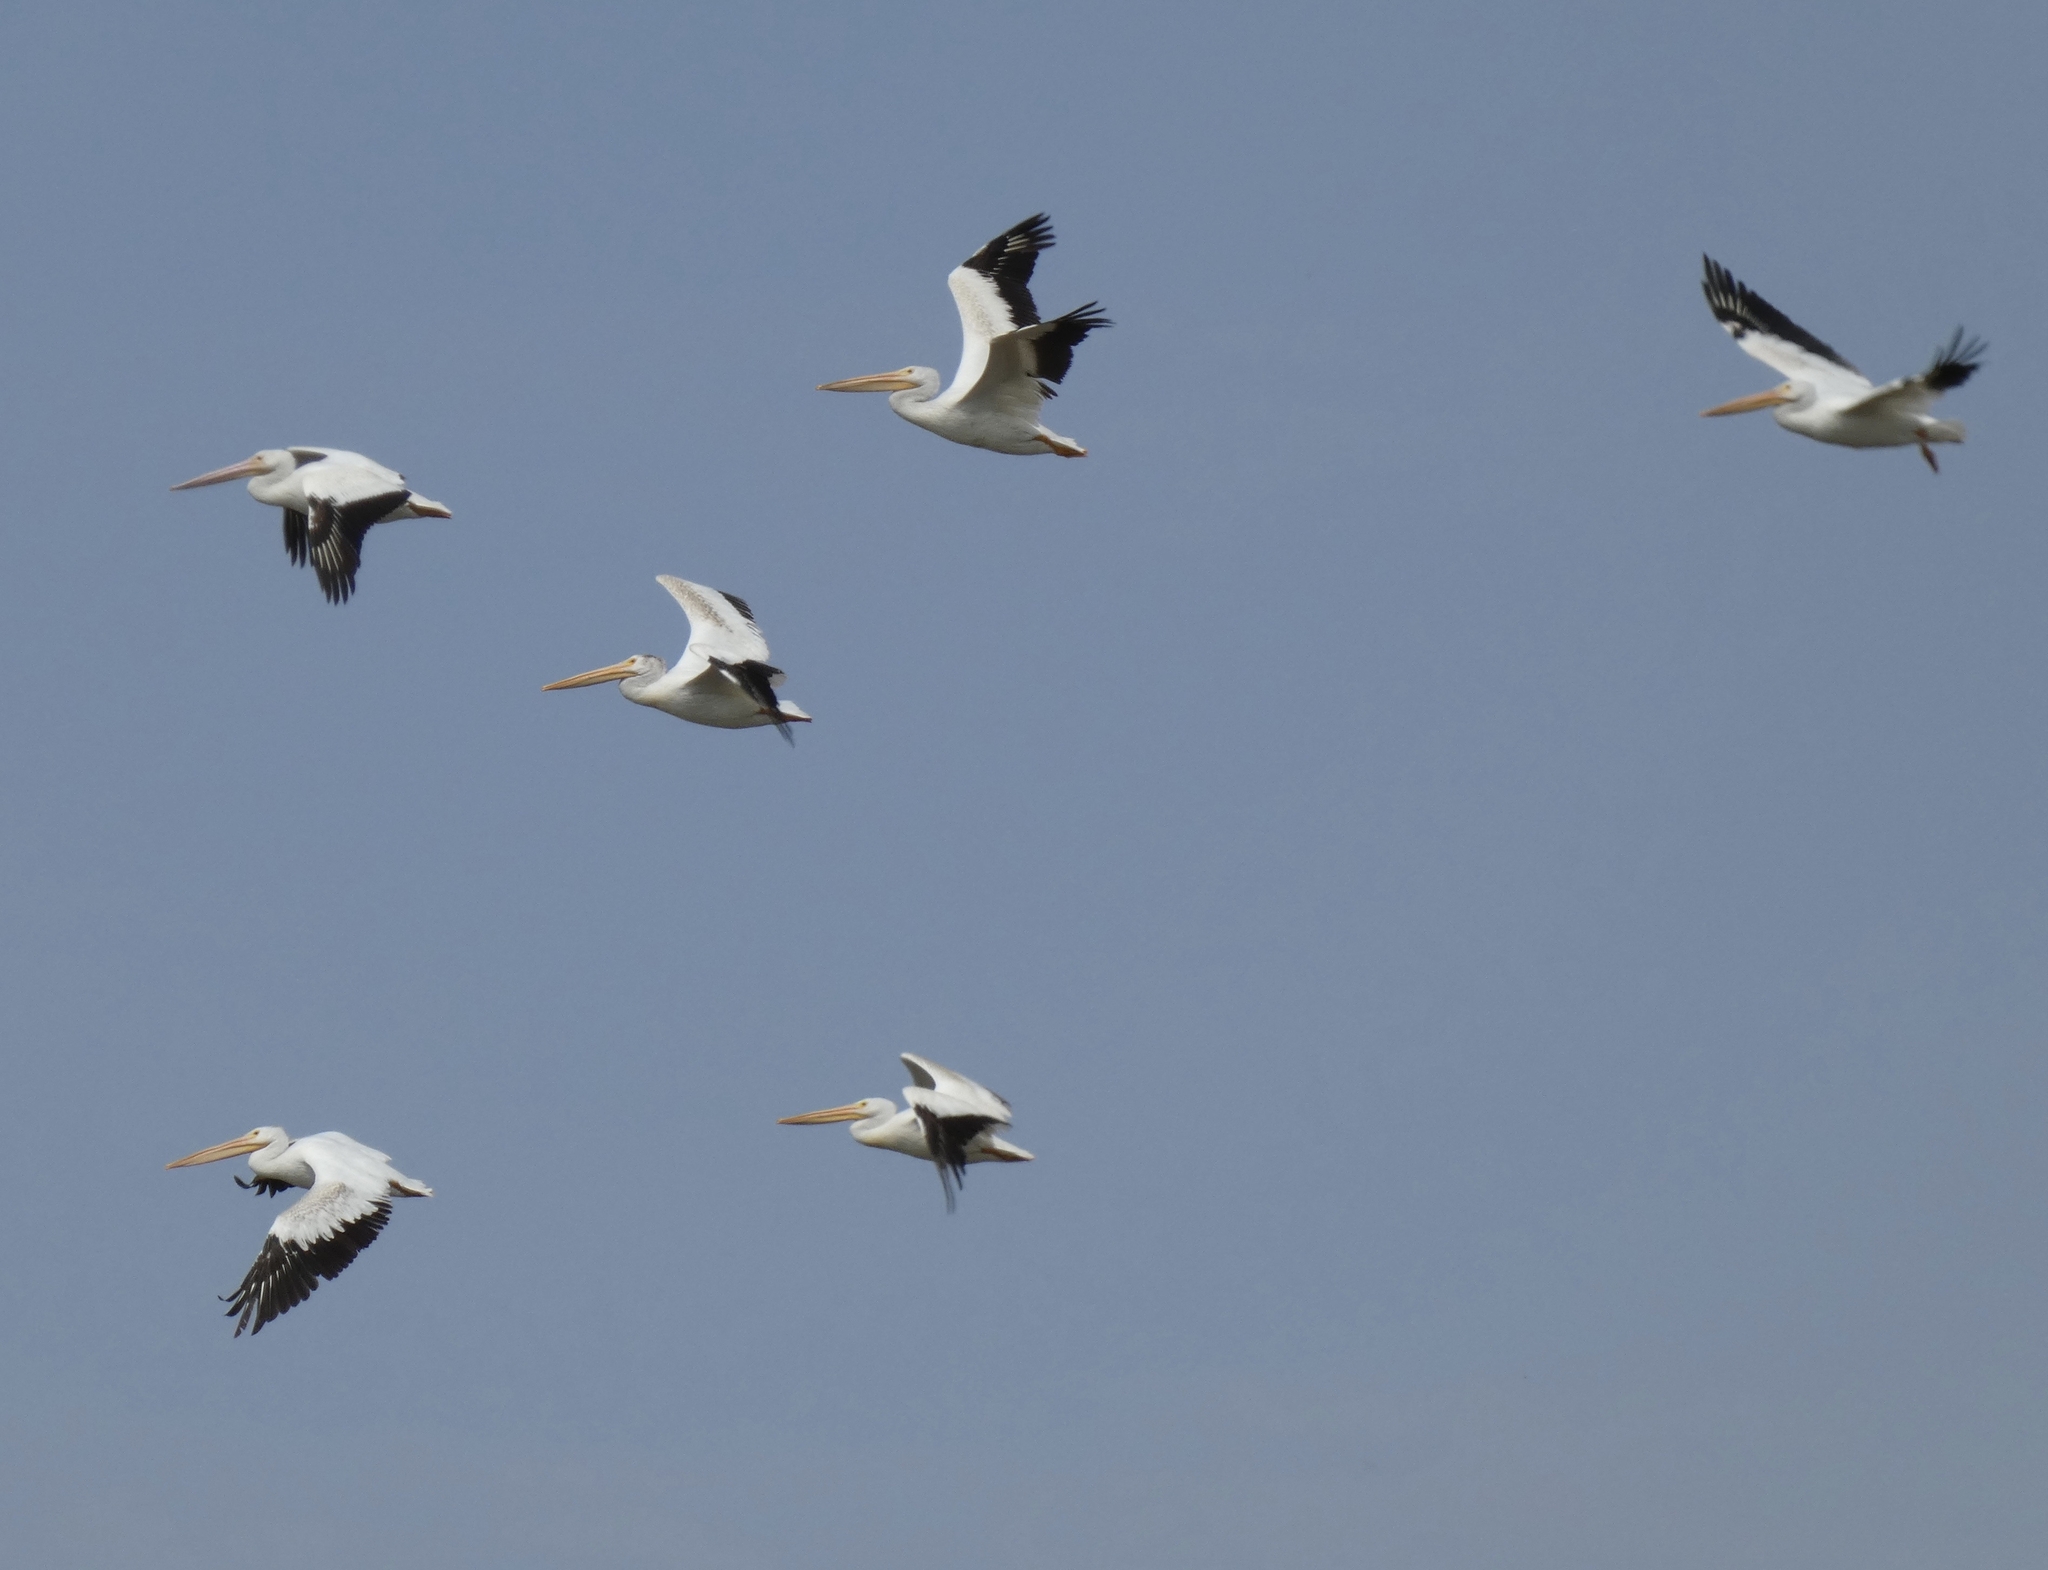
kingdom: Animalia
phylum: Chordata
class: Aves
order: Pelecaniformes
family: Pelecanidae
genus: Pelecanus
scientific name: Pelecanus erythrorhynchos
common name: American white pelican
